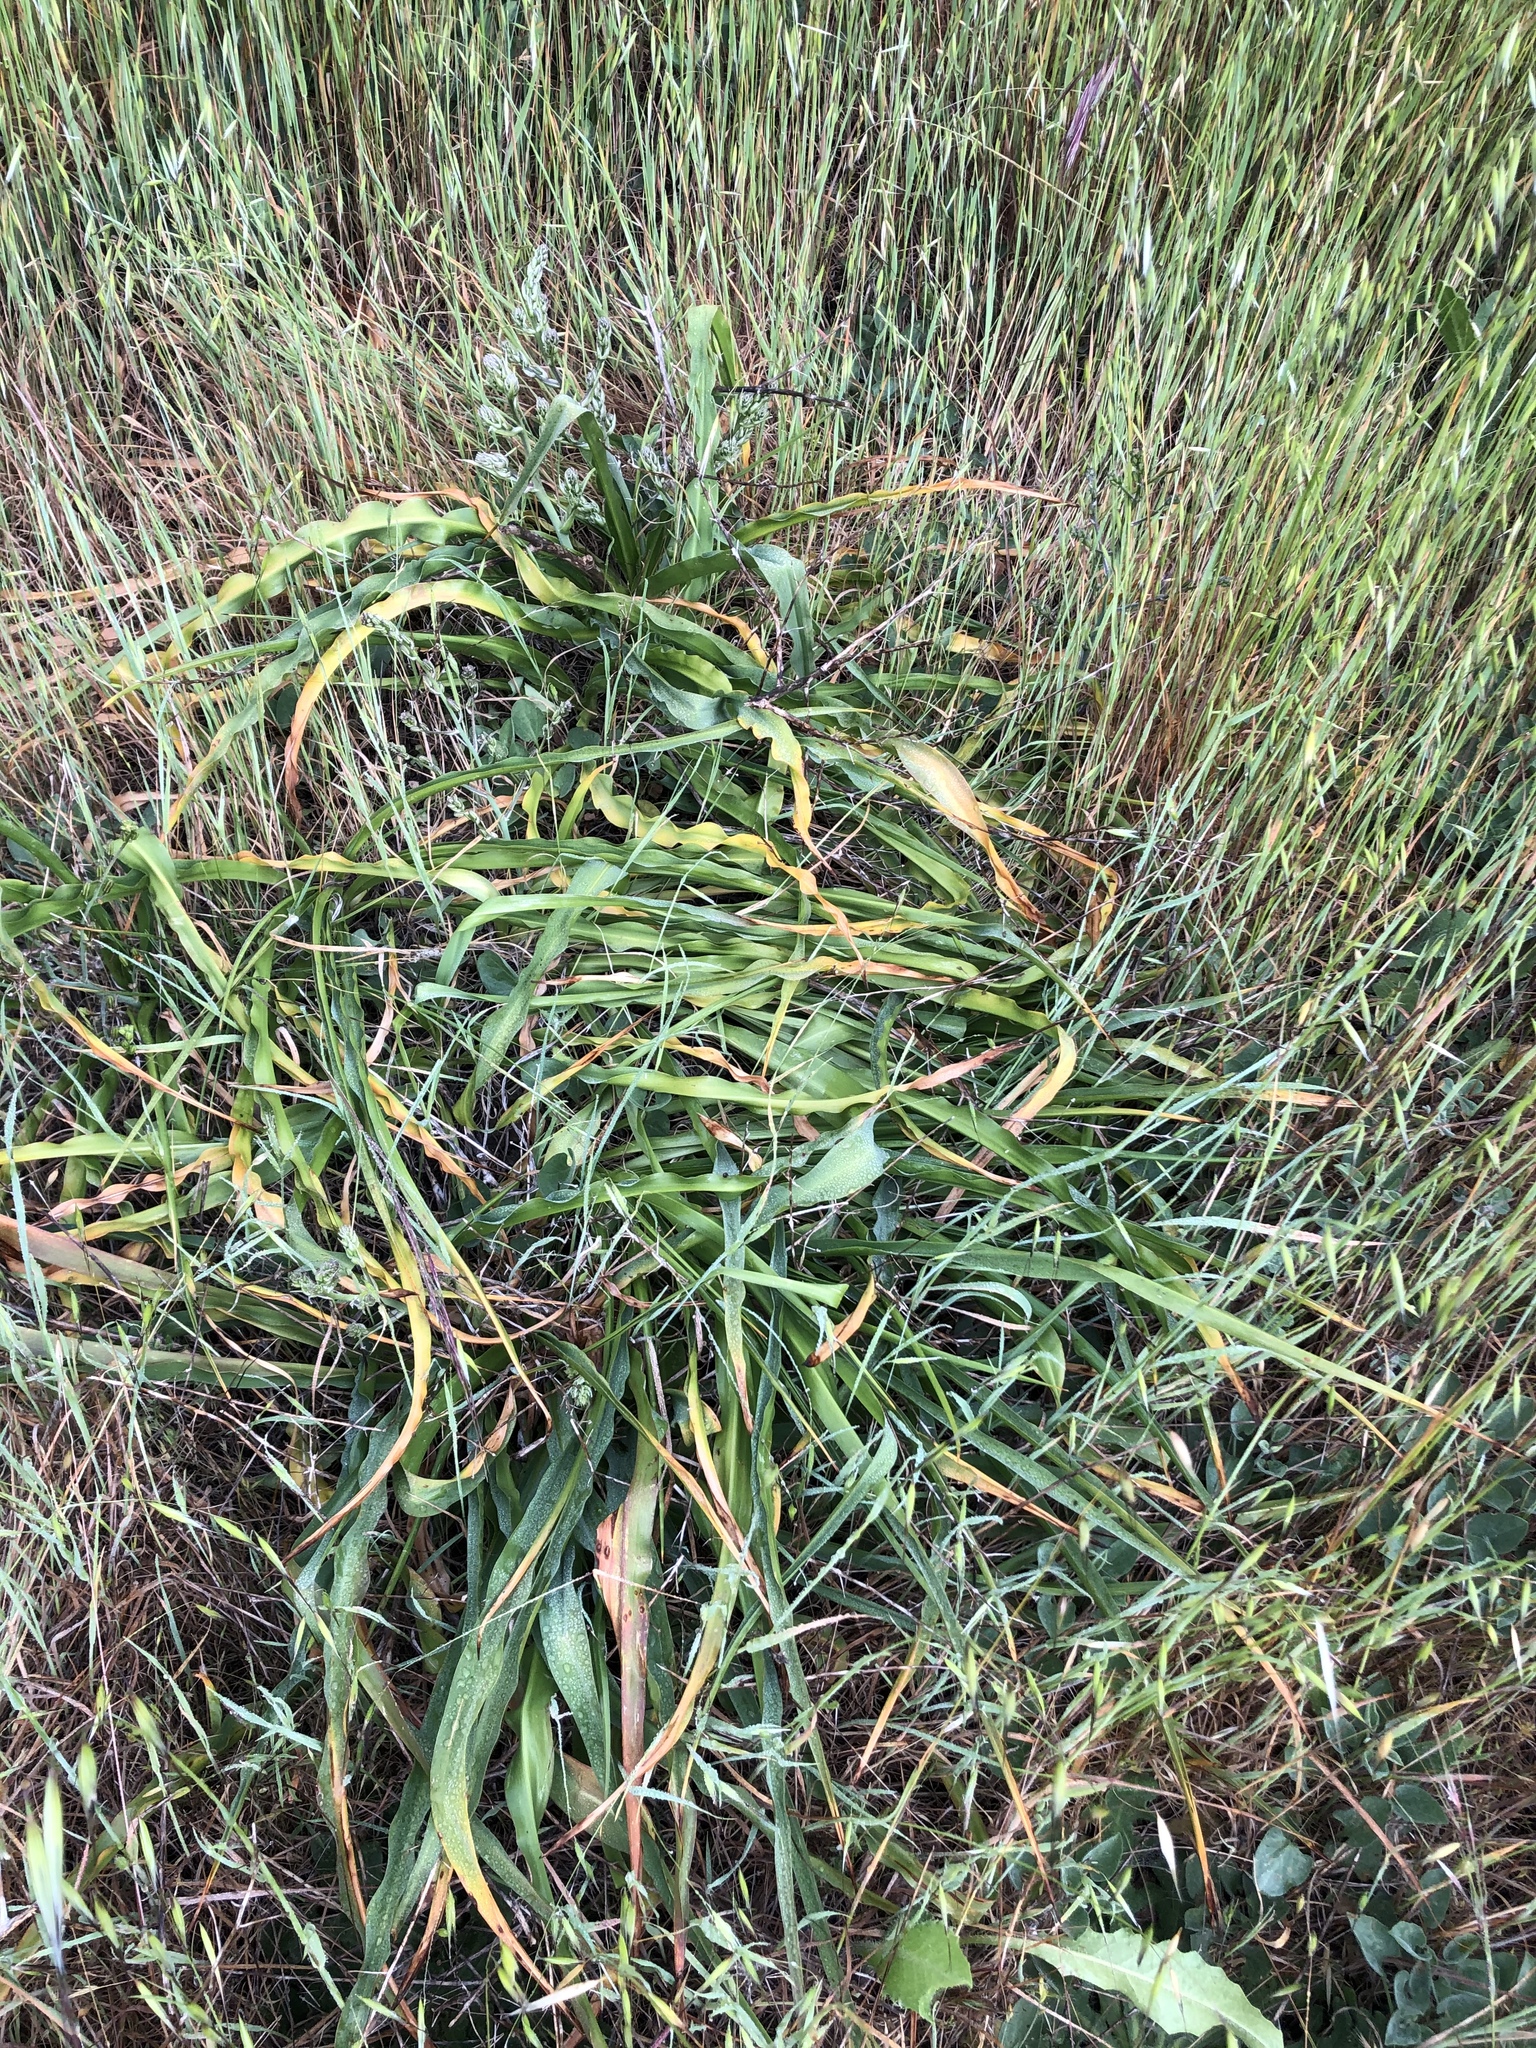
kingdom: Plantae
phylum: Tracheophyta
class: Liliopsida
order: Asparagales
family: Asparagaceae
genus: Chlorogalum
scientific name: Chlorogalum pomeridianum
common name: Amole
